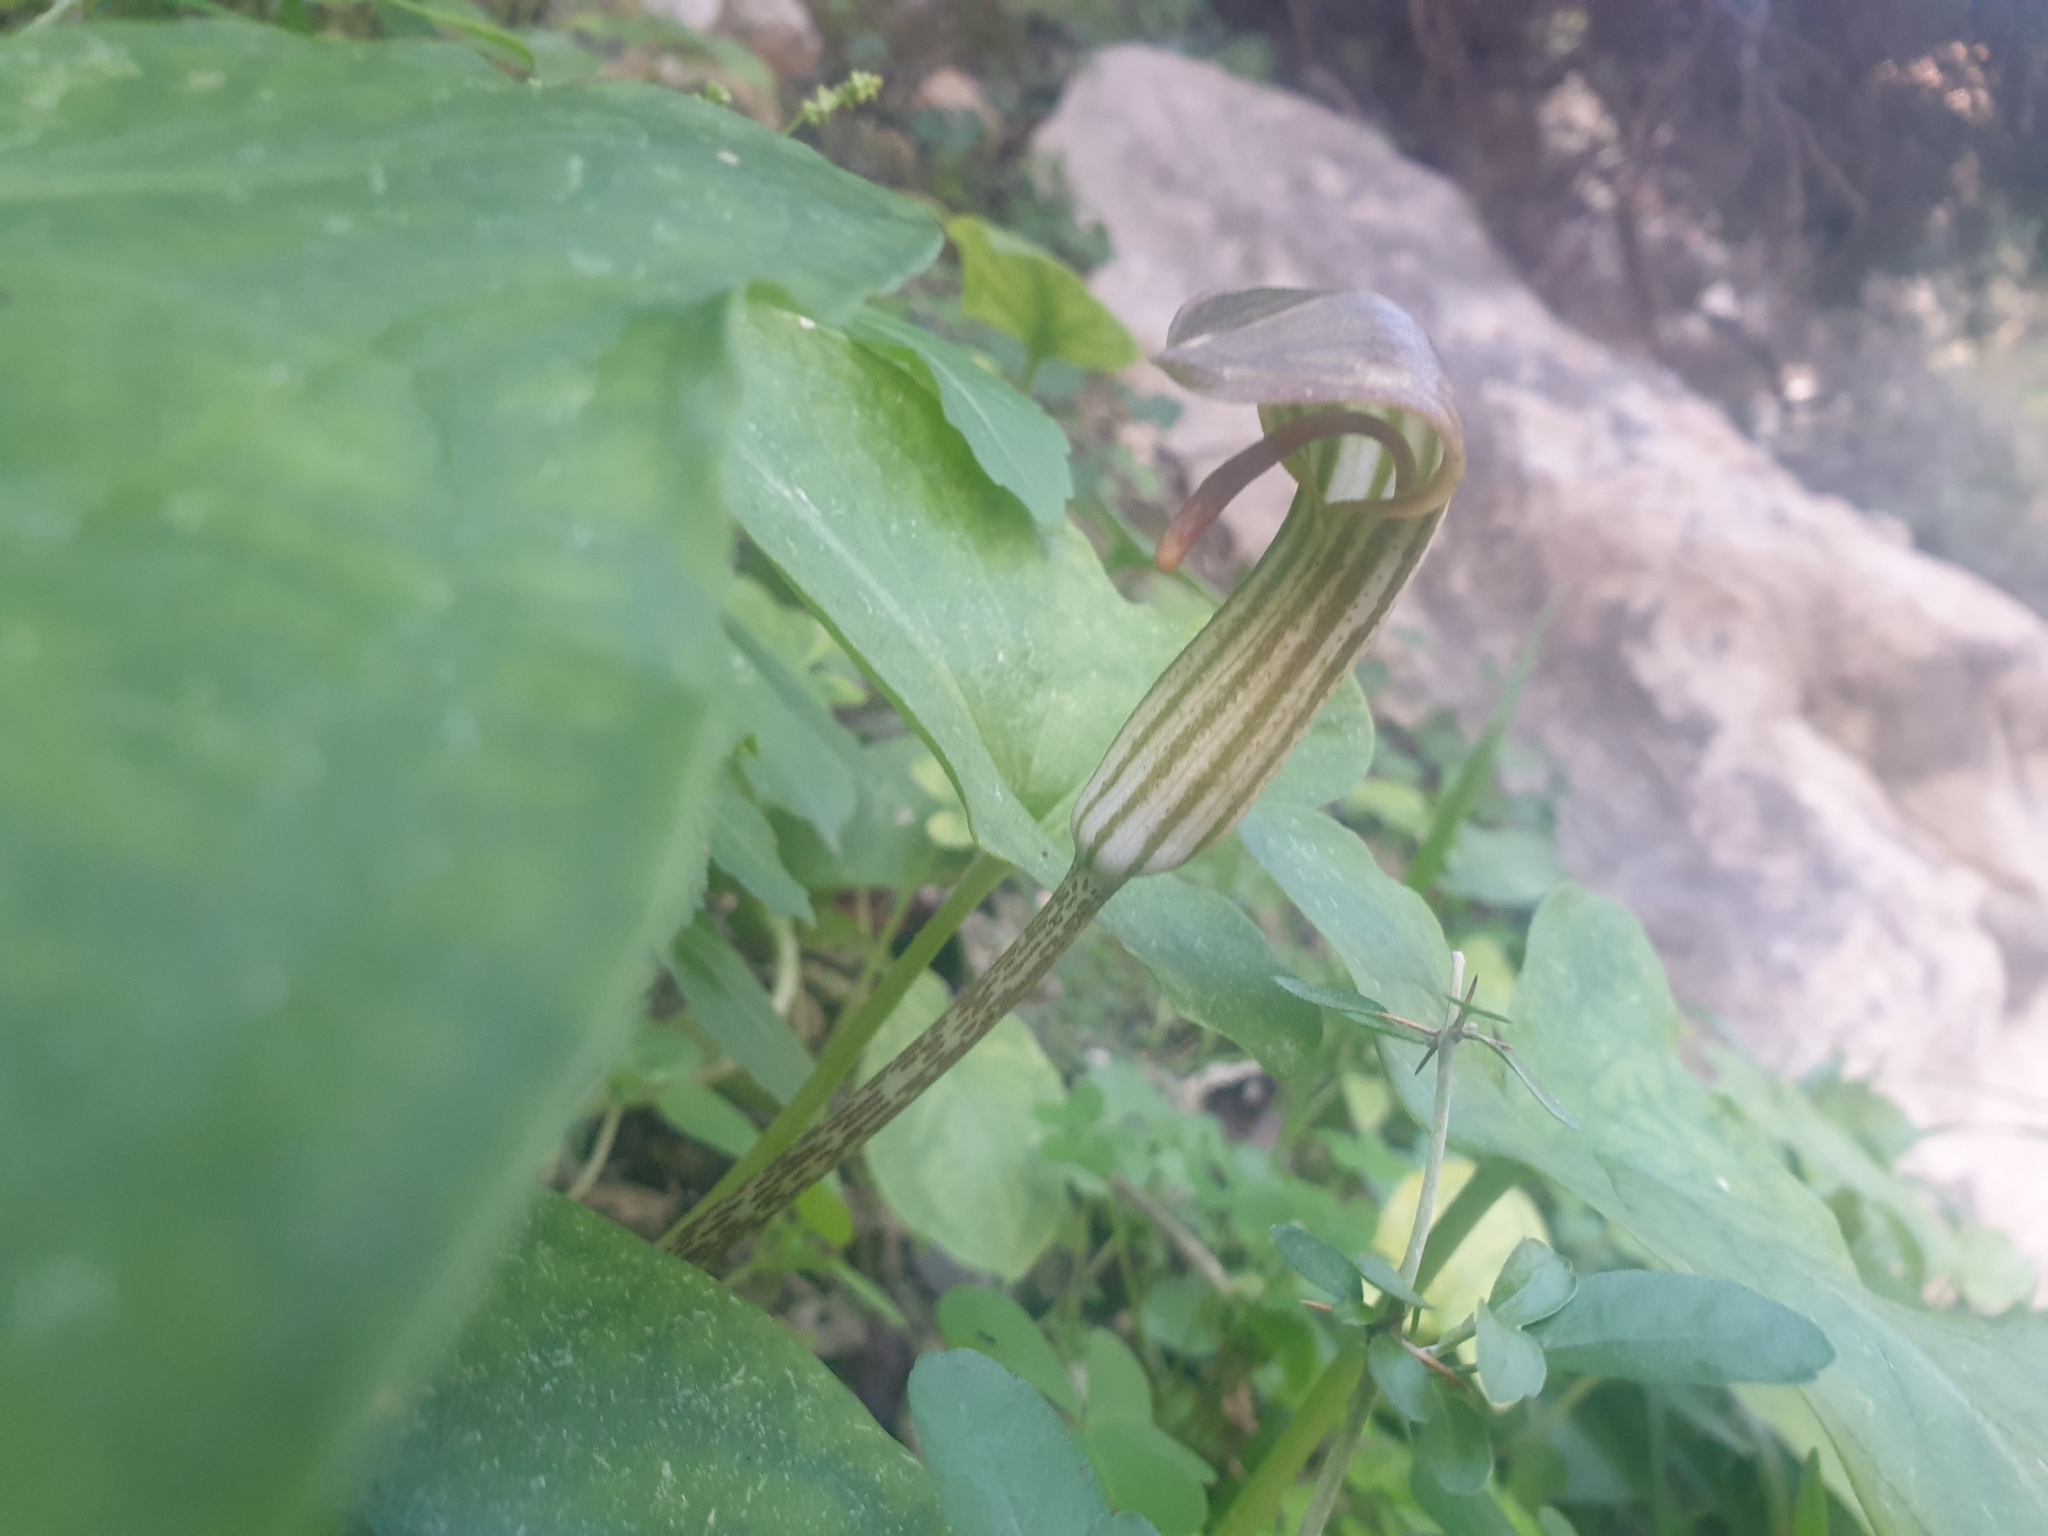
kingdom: Plantae
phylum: Tracheophyta
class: Liliopsida
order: Alismatales
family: Araceae
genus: Arisarum
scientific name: Arisarum vulgare
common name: Common arisarum
